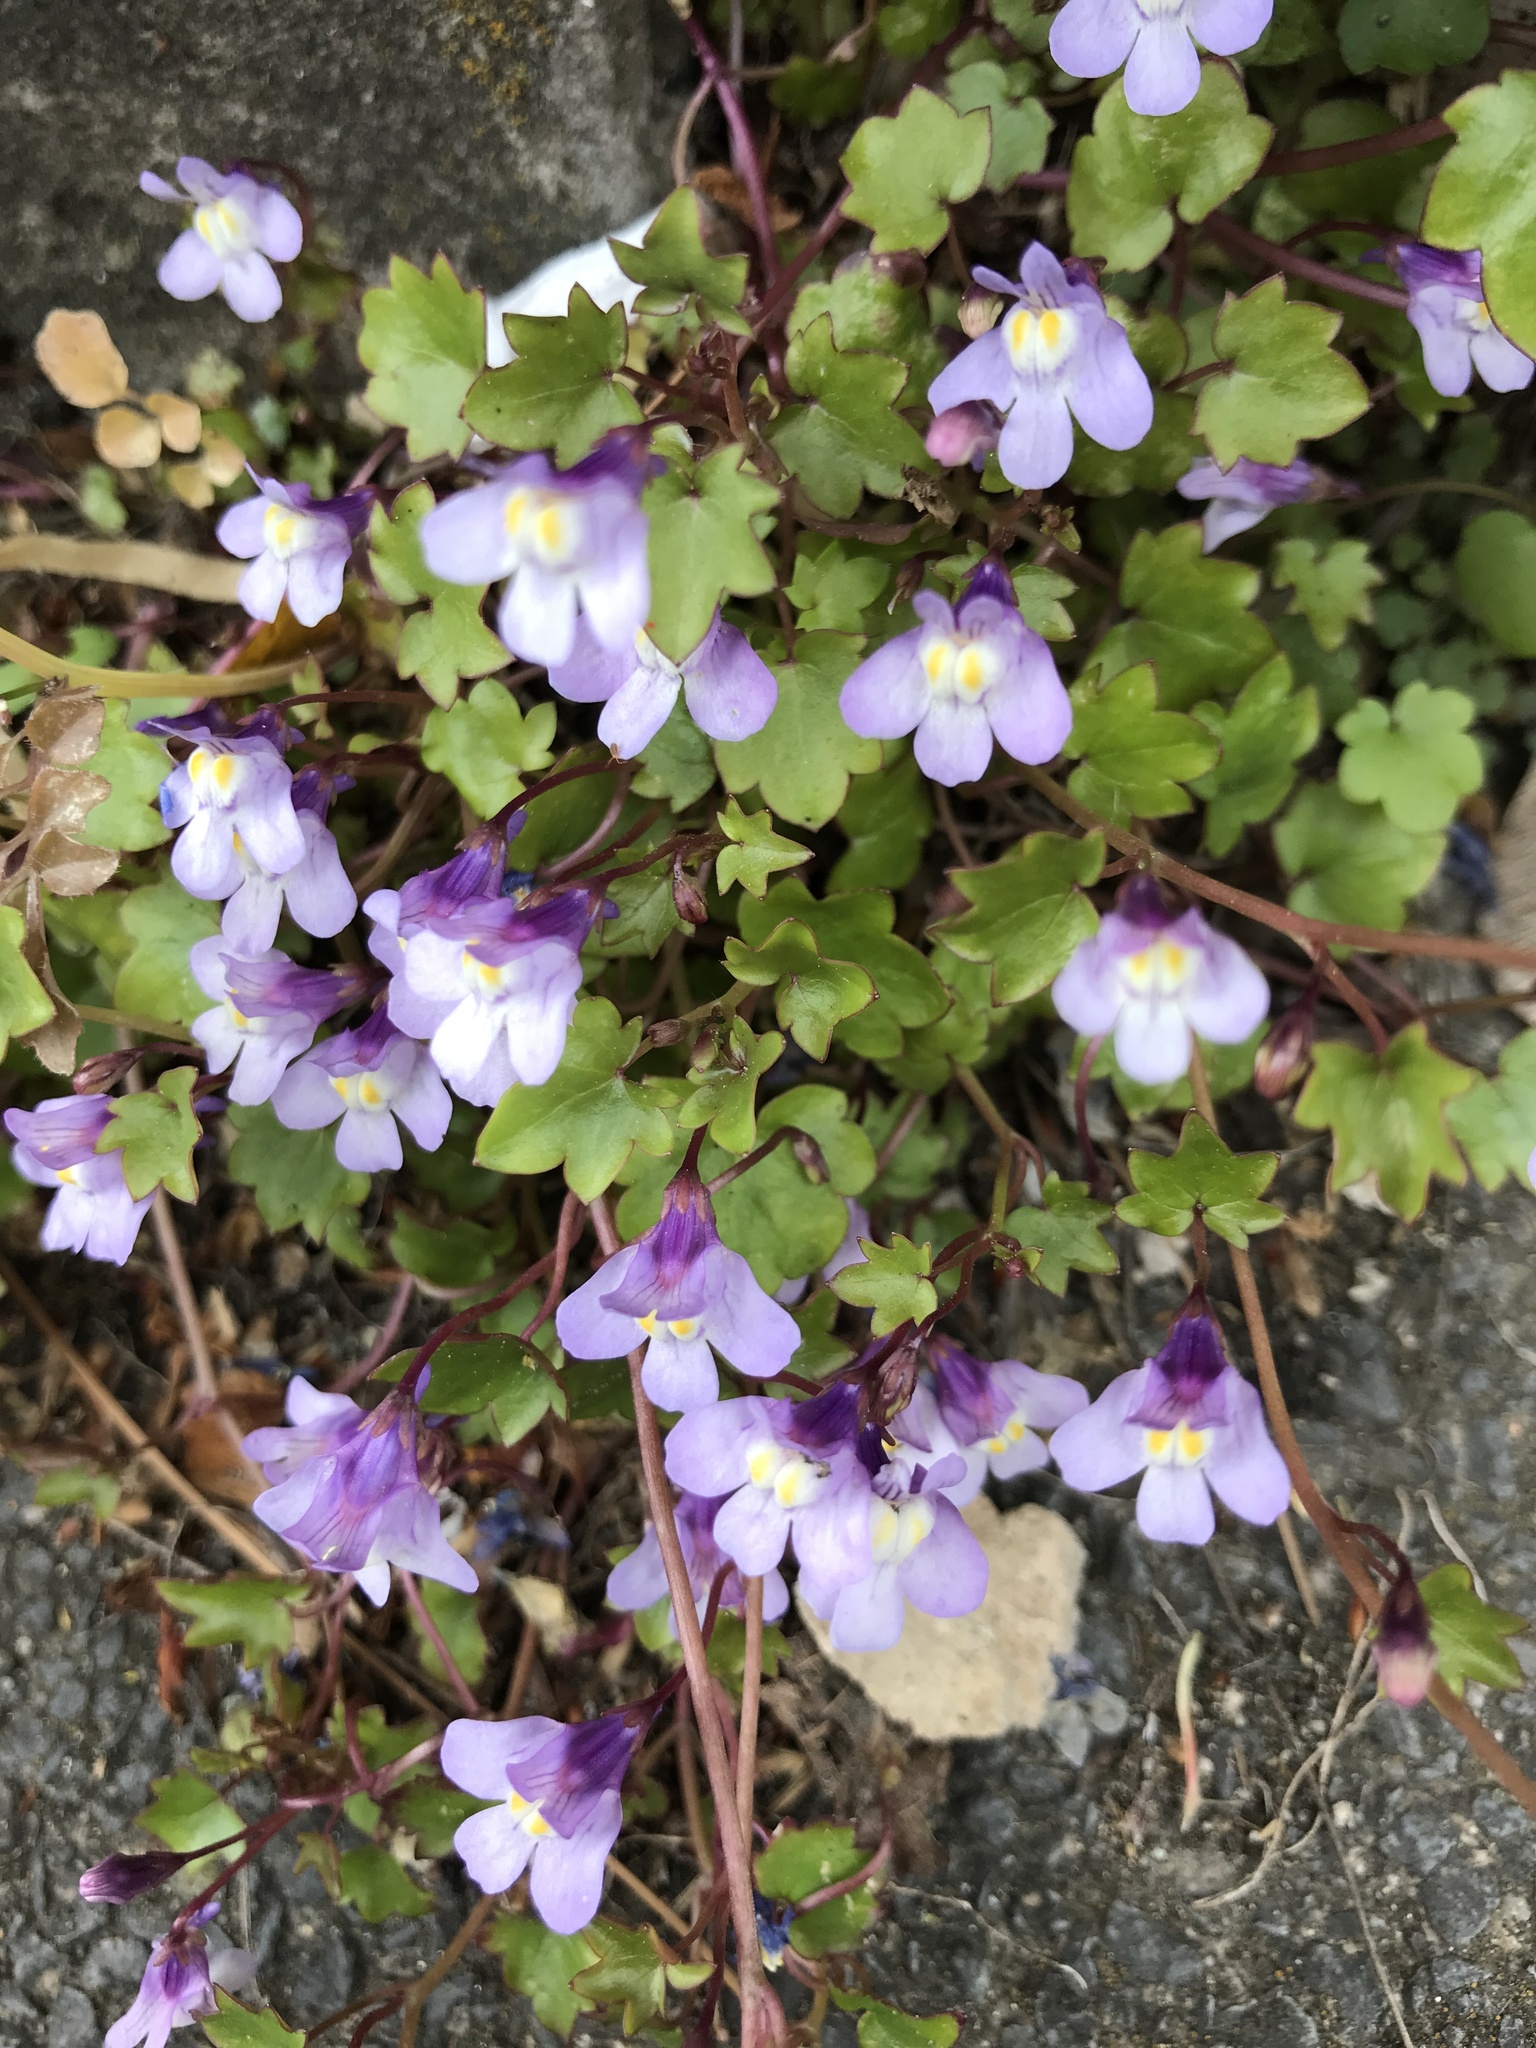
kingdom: Plantae
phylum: Tracheophyta
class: Magnoliopsida
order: Lamiales
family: Plantaginaceae
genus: Cymbalaria
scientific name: Cymbalaria muralis
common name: Ivy-leaved toadflax
